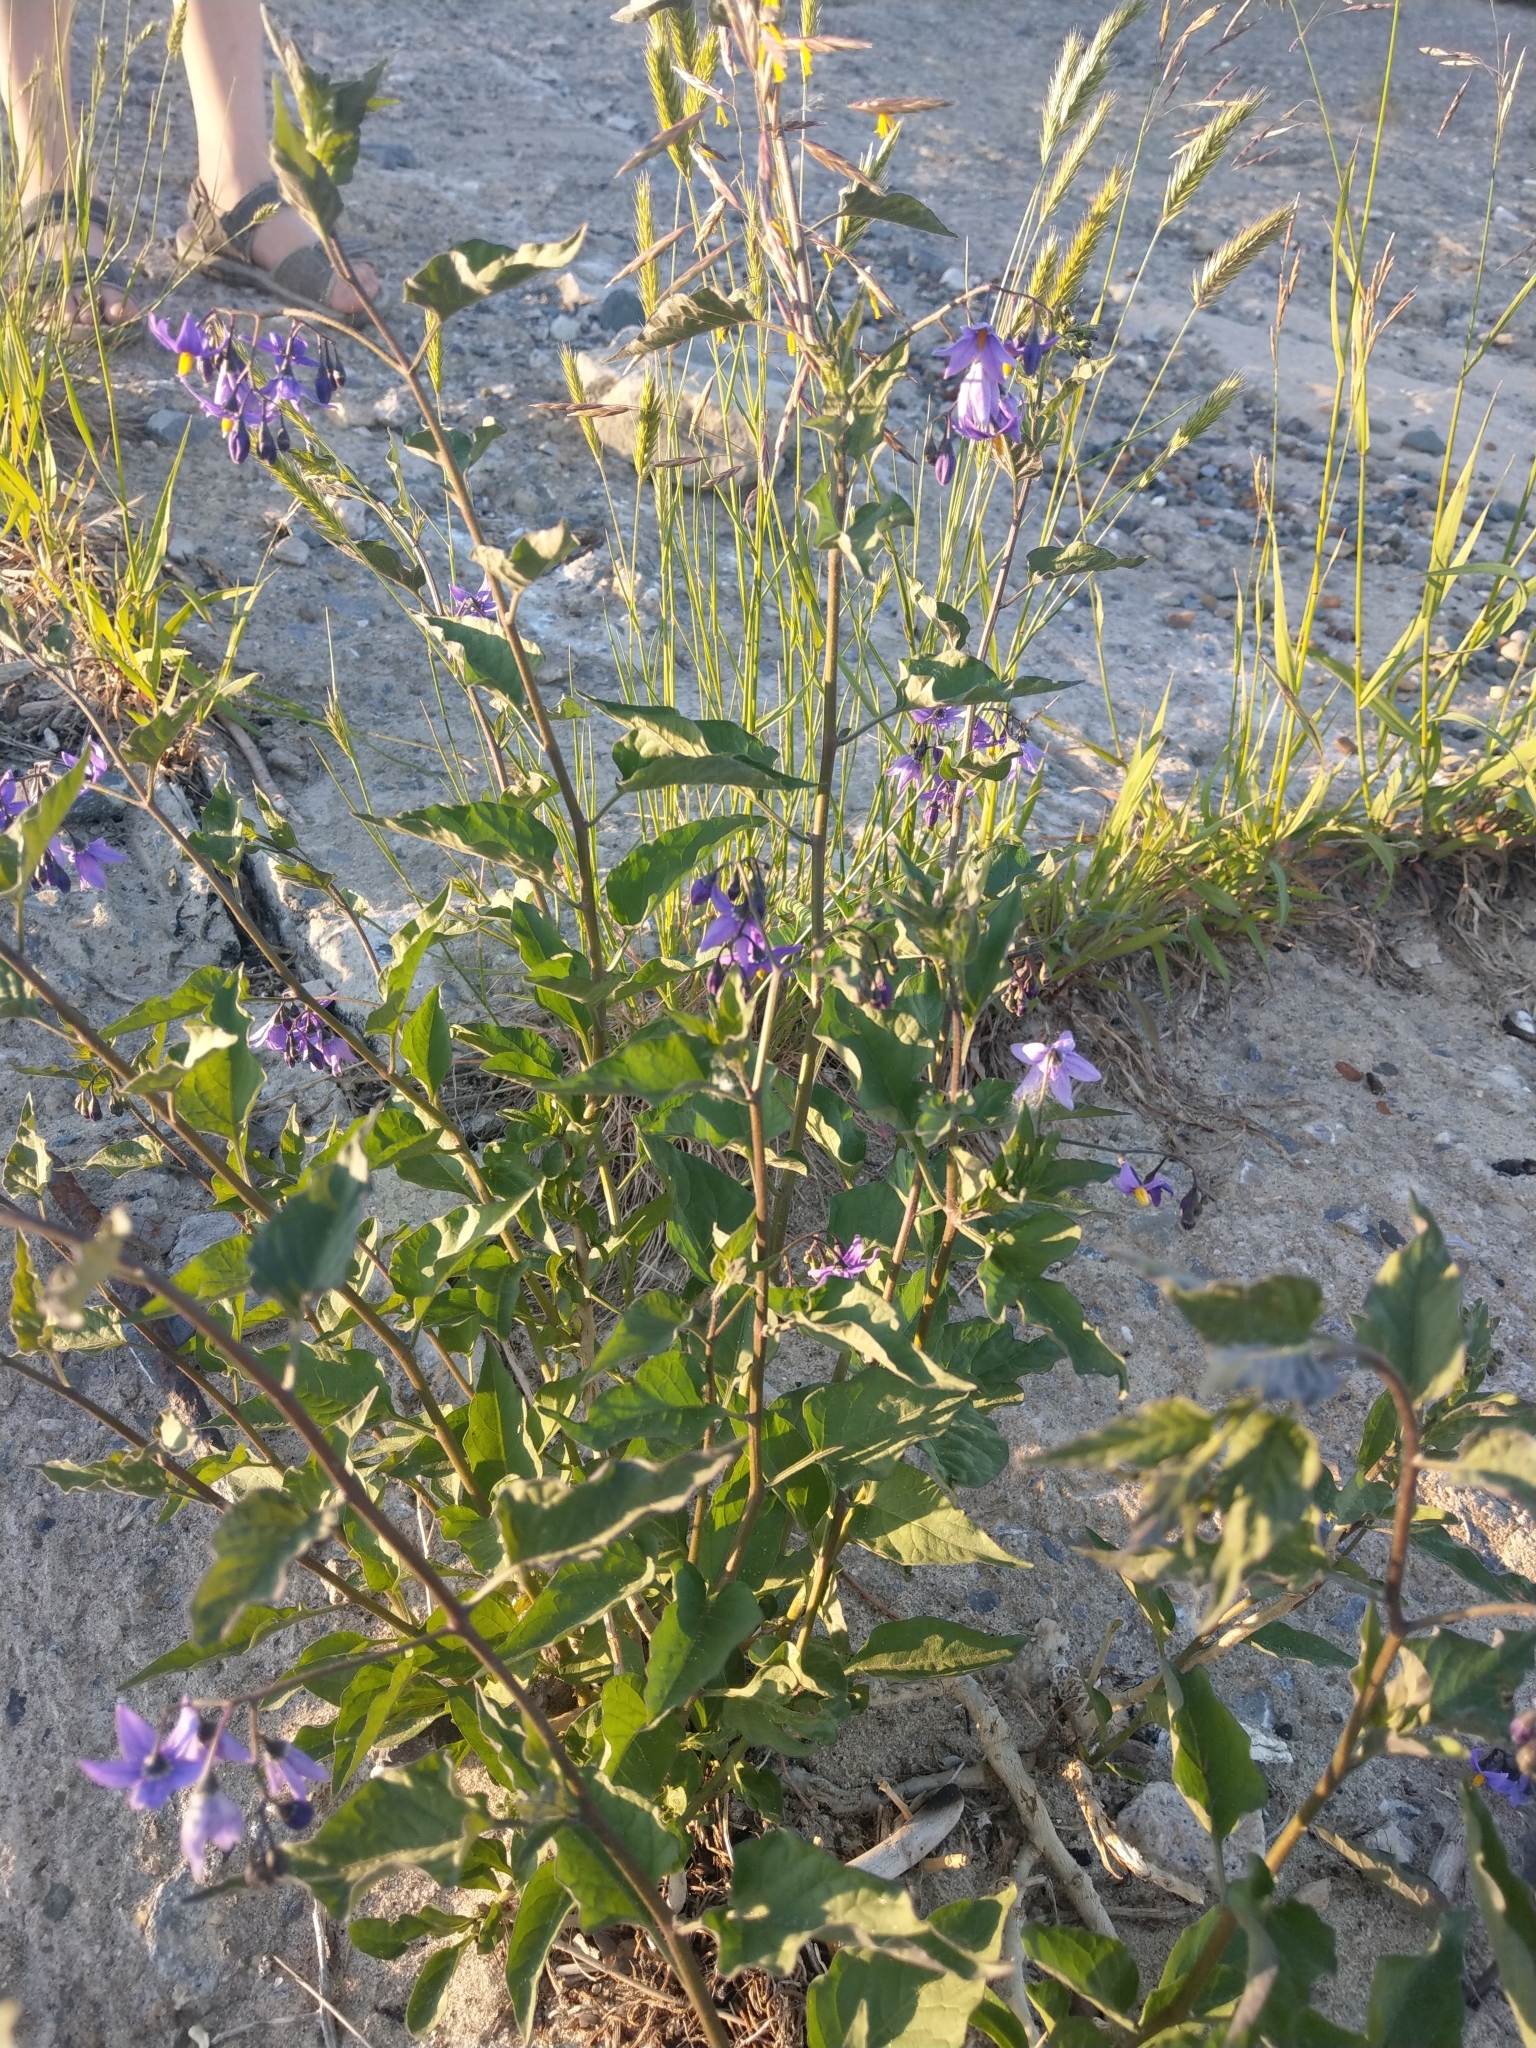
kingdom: Plantae
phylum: Tracheophyta
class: Magnoliopsida
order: Solanales
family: Solanaceae
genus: Solanum
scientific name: Solanum dulcamara
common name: Climbing nightshade
